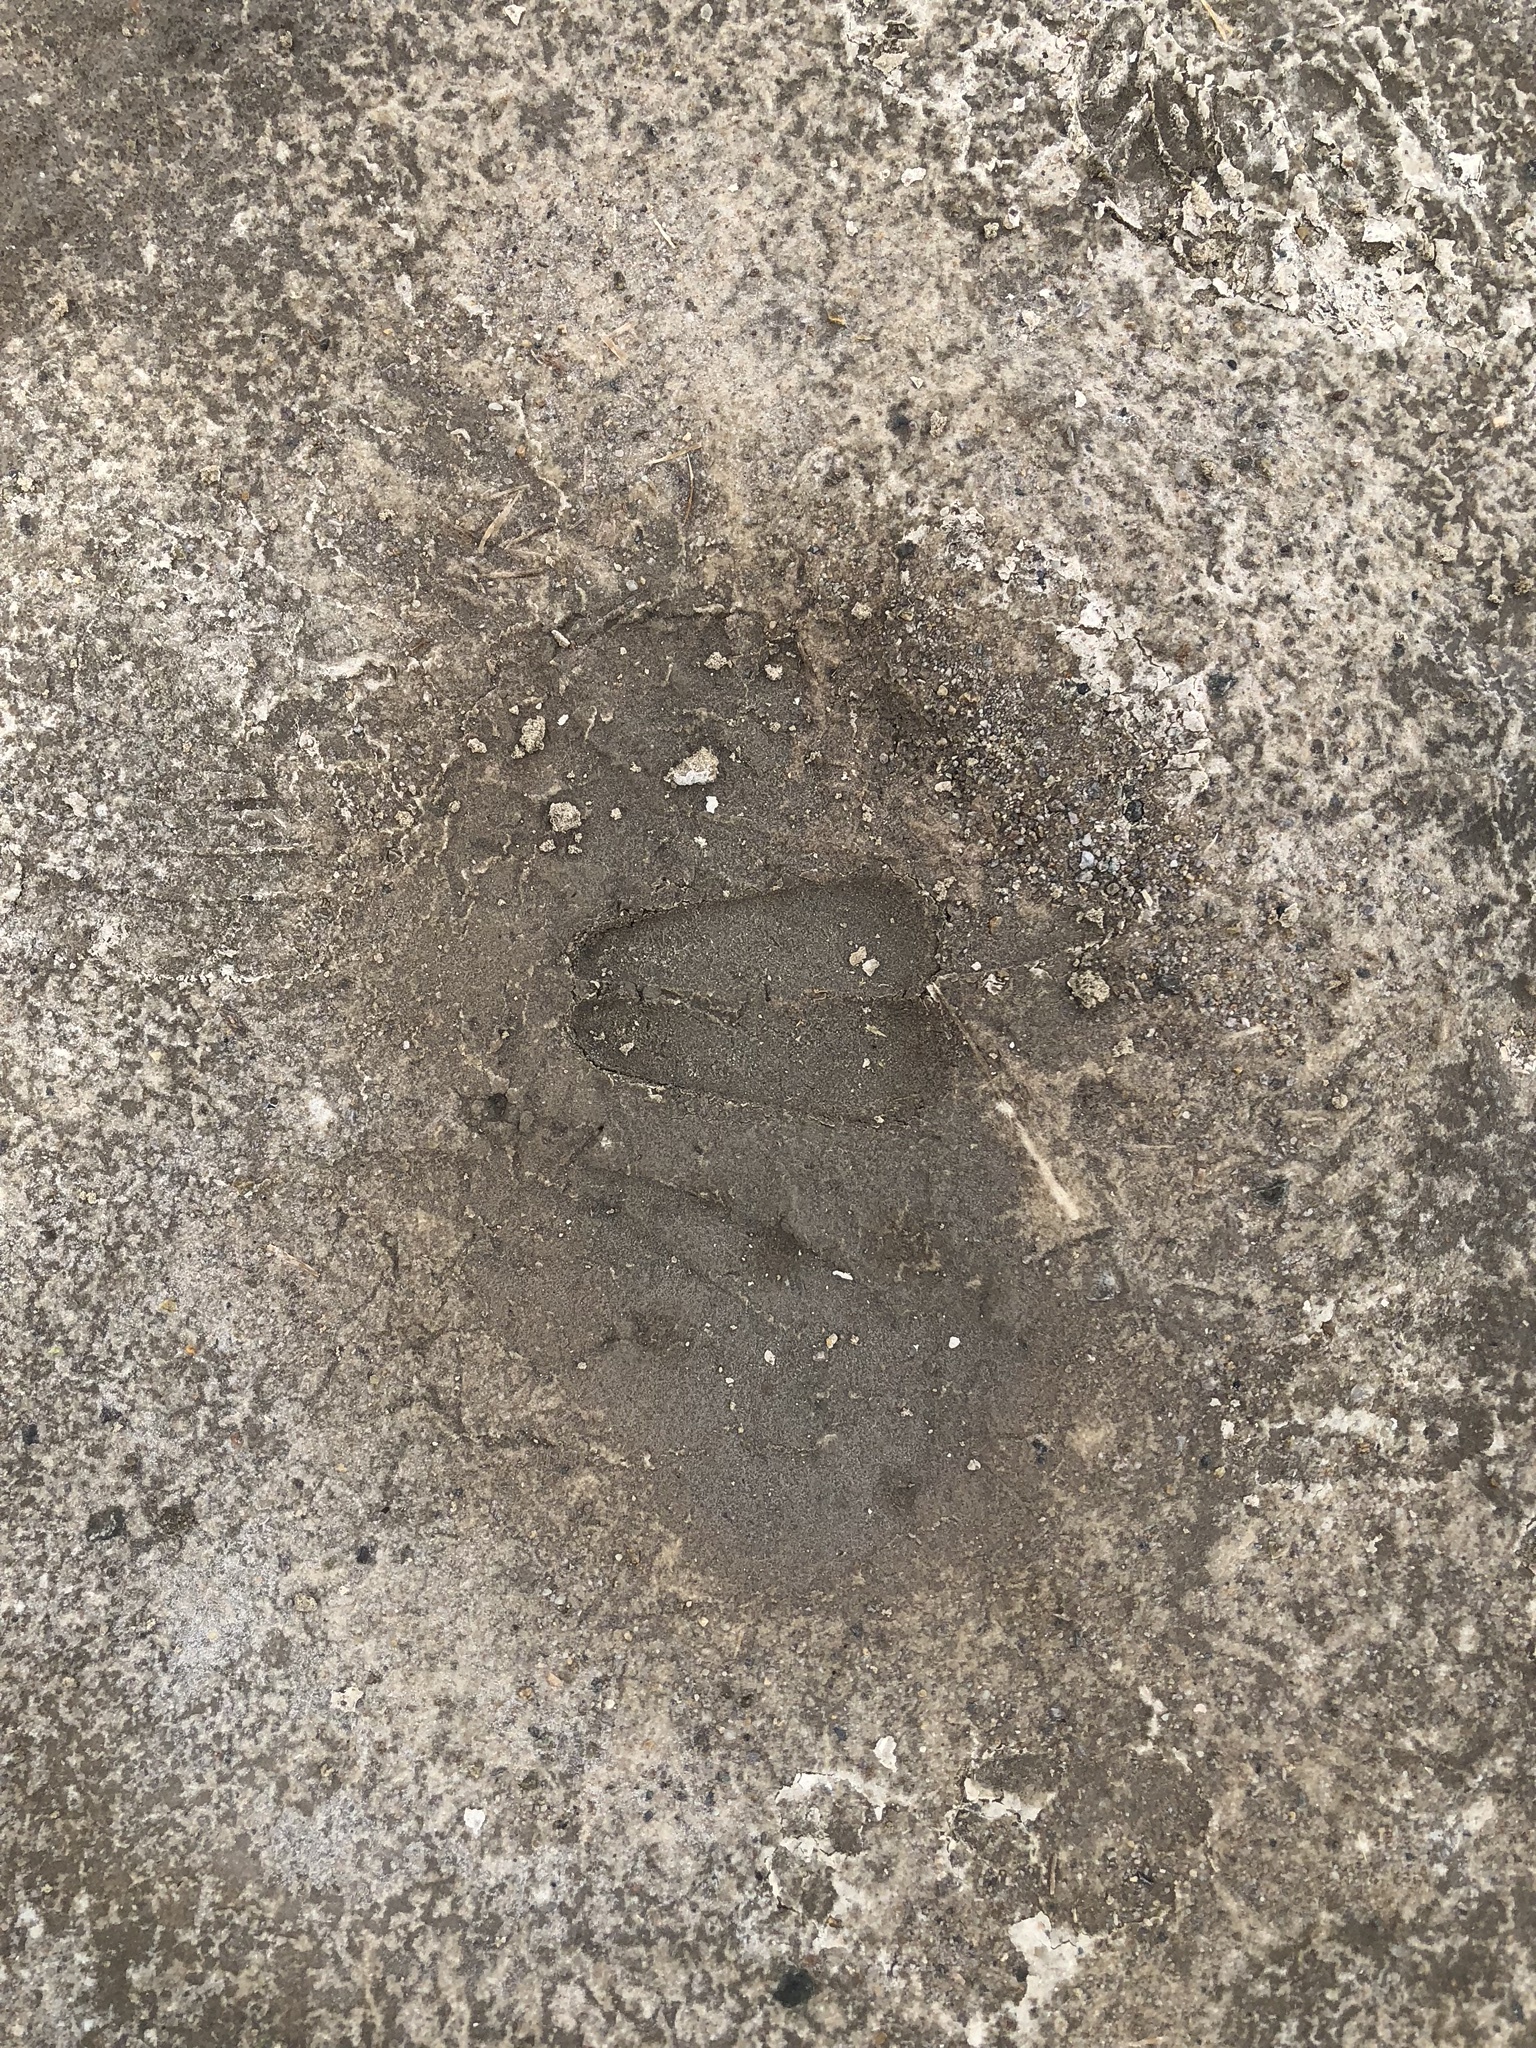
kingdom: Animalia
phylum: Chordata
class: Mammalia
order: Artiodactyla
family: Bovidae
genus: Ovis
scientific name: Ovis canadensis
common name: Bighorn sheep
